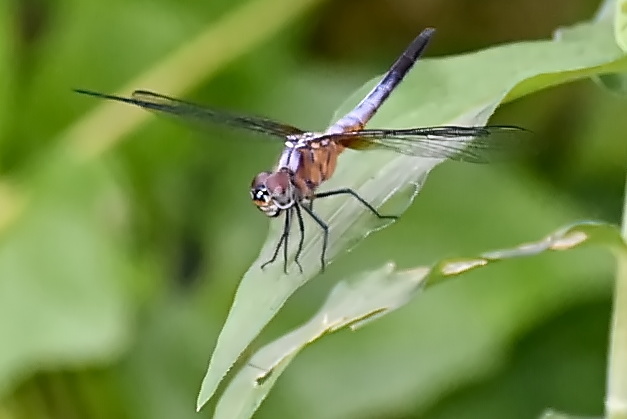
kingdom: Animalia
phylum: Arthropoda
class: Insecta
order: Odonata
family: Libellulidae
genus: Brachydiplax
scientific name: Brachydiplax chalybea
